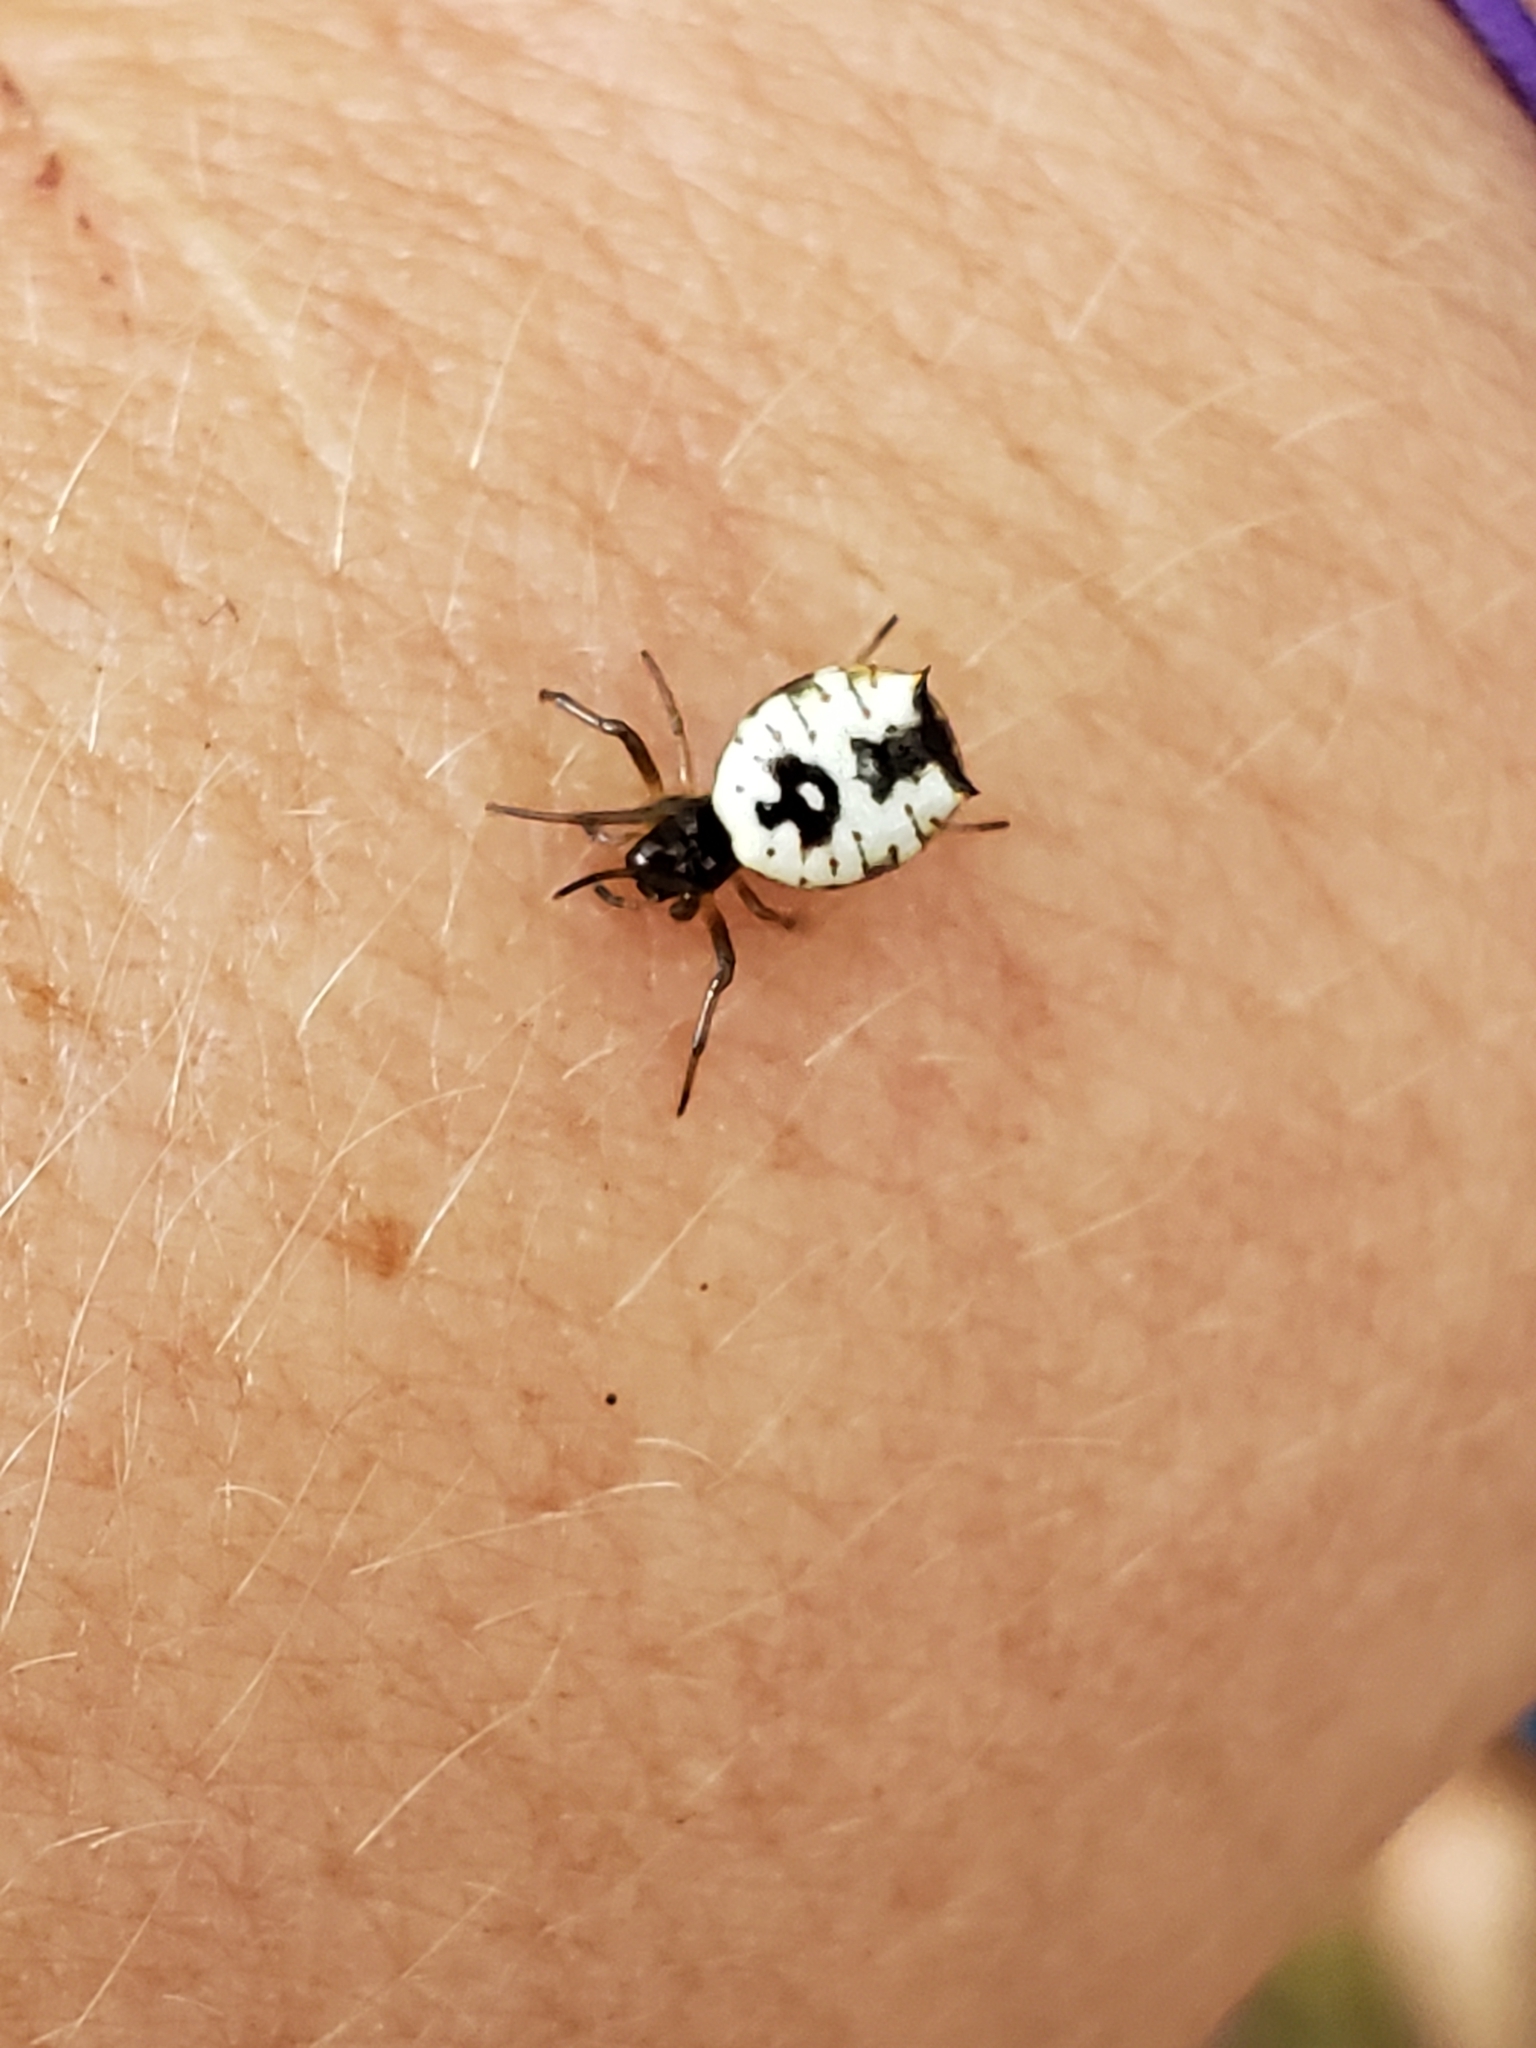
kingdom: Animalia
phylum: Arthropoda
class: Arachnida
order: Araneae
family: Araneidae
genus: Micrathena
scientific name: Micrathena mitrata
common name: Orb weavers
